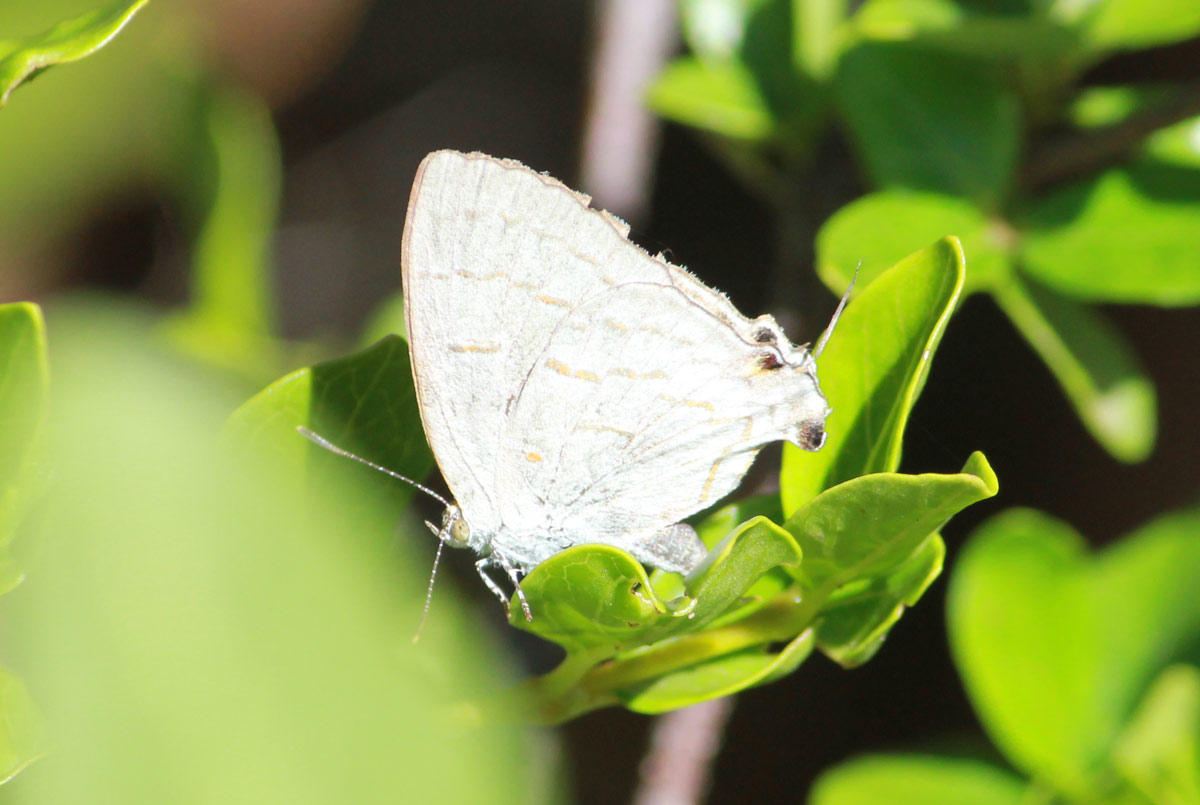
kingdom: Animalia
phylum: Arthropoda
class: Insecta
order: Lepidoptera
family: Lycaenidae
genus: Hypolycaena
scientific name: Hypolycaena philippus
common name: Common hairstreak
